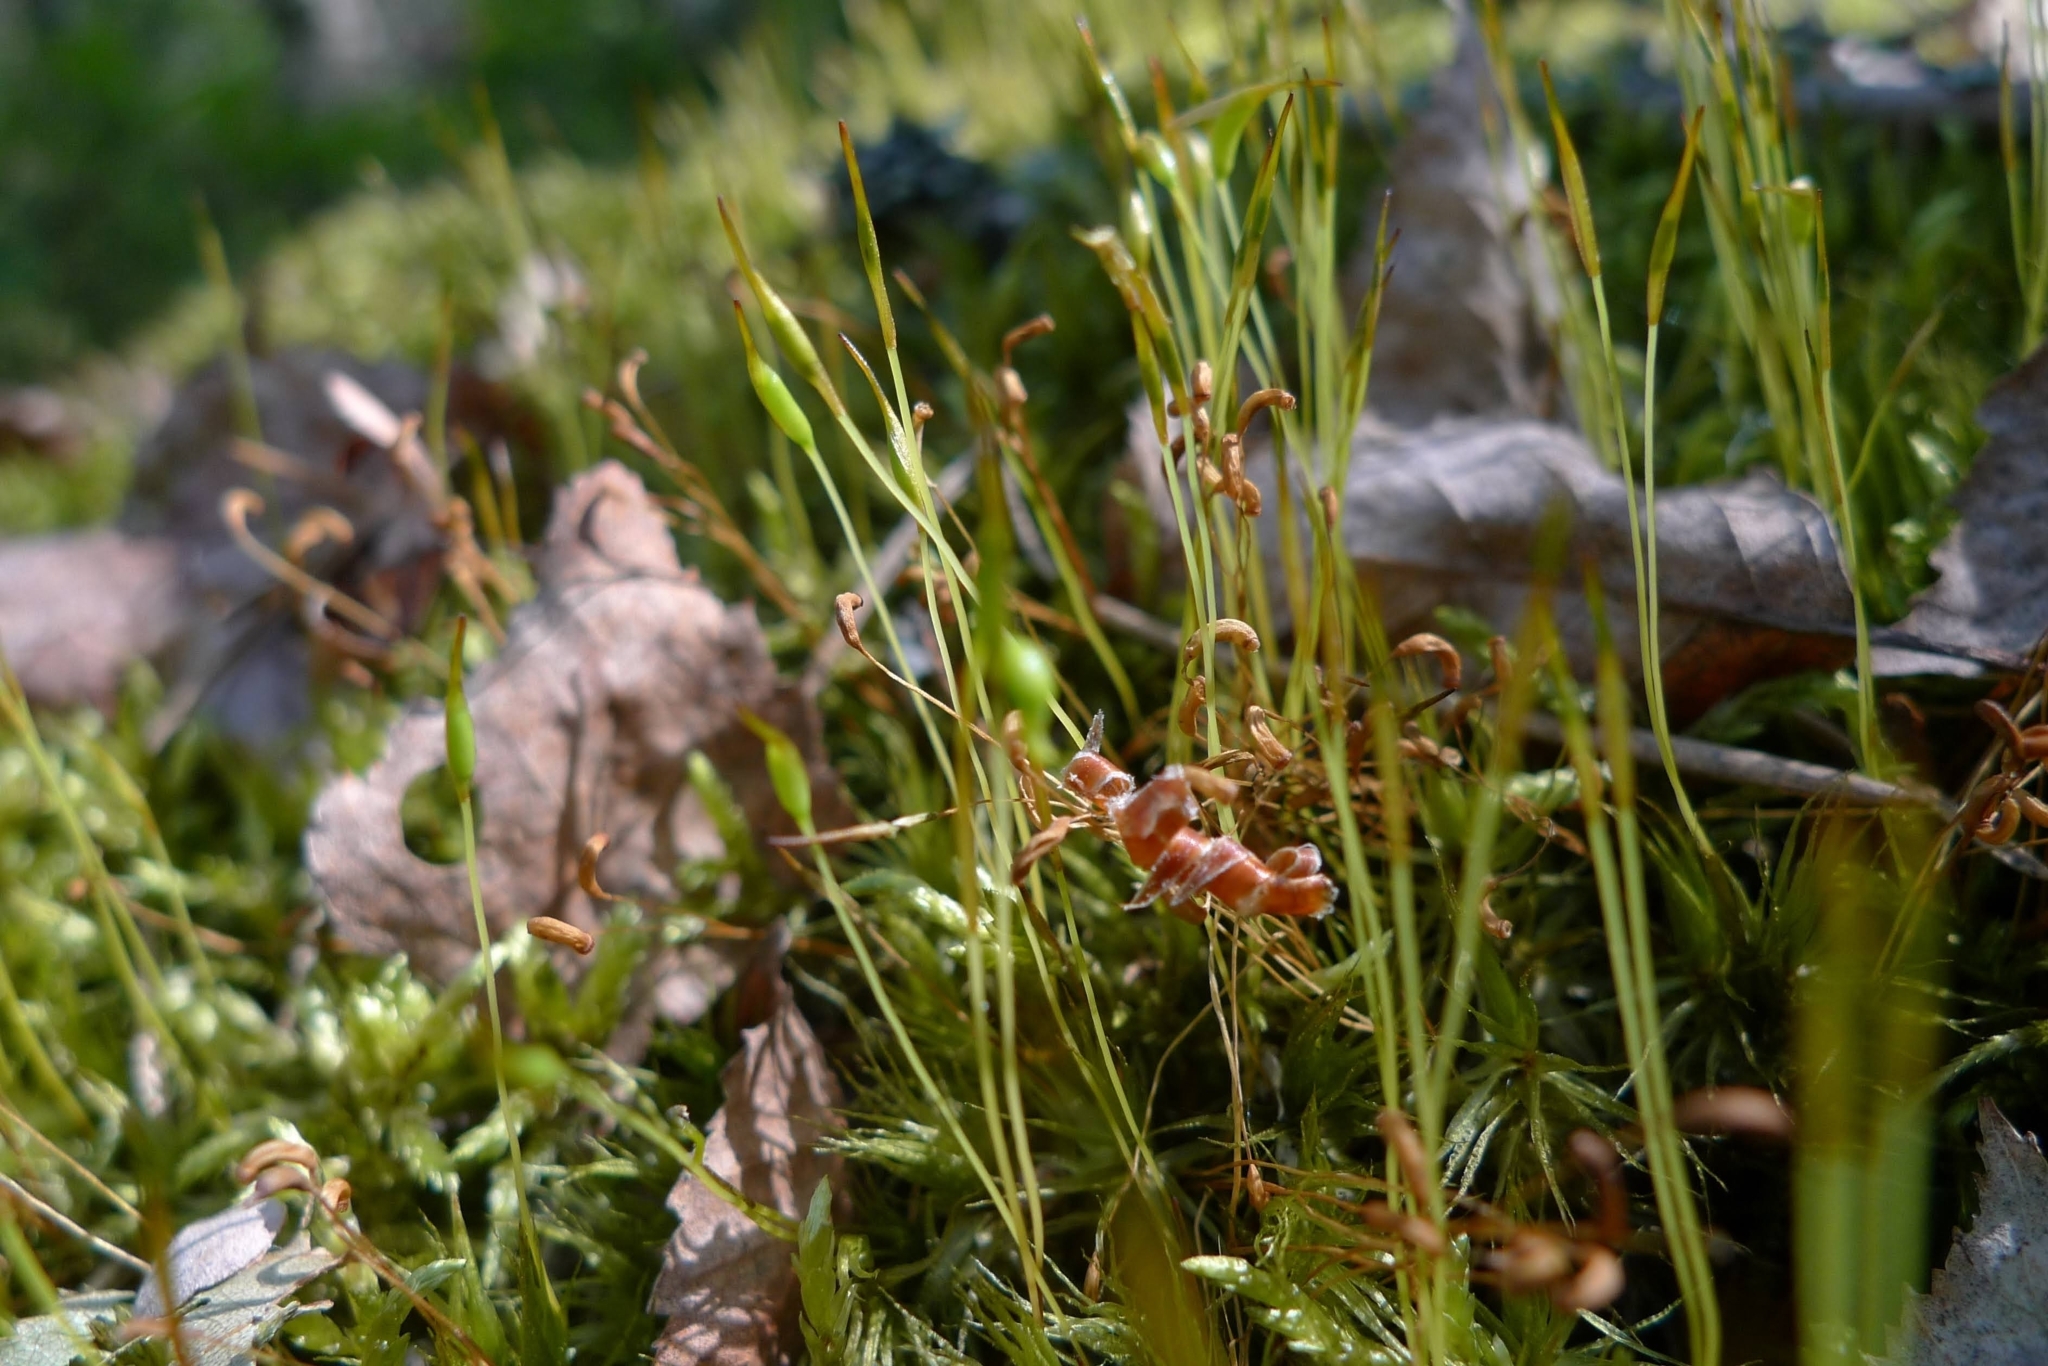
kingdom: Plantae
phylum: Bryophyta
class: Bryopsida
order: Dicranales
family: Dicranaceae
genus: Dicranum
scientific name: Dicranum polysetum
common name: Rugose fork-moss
